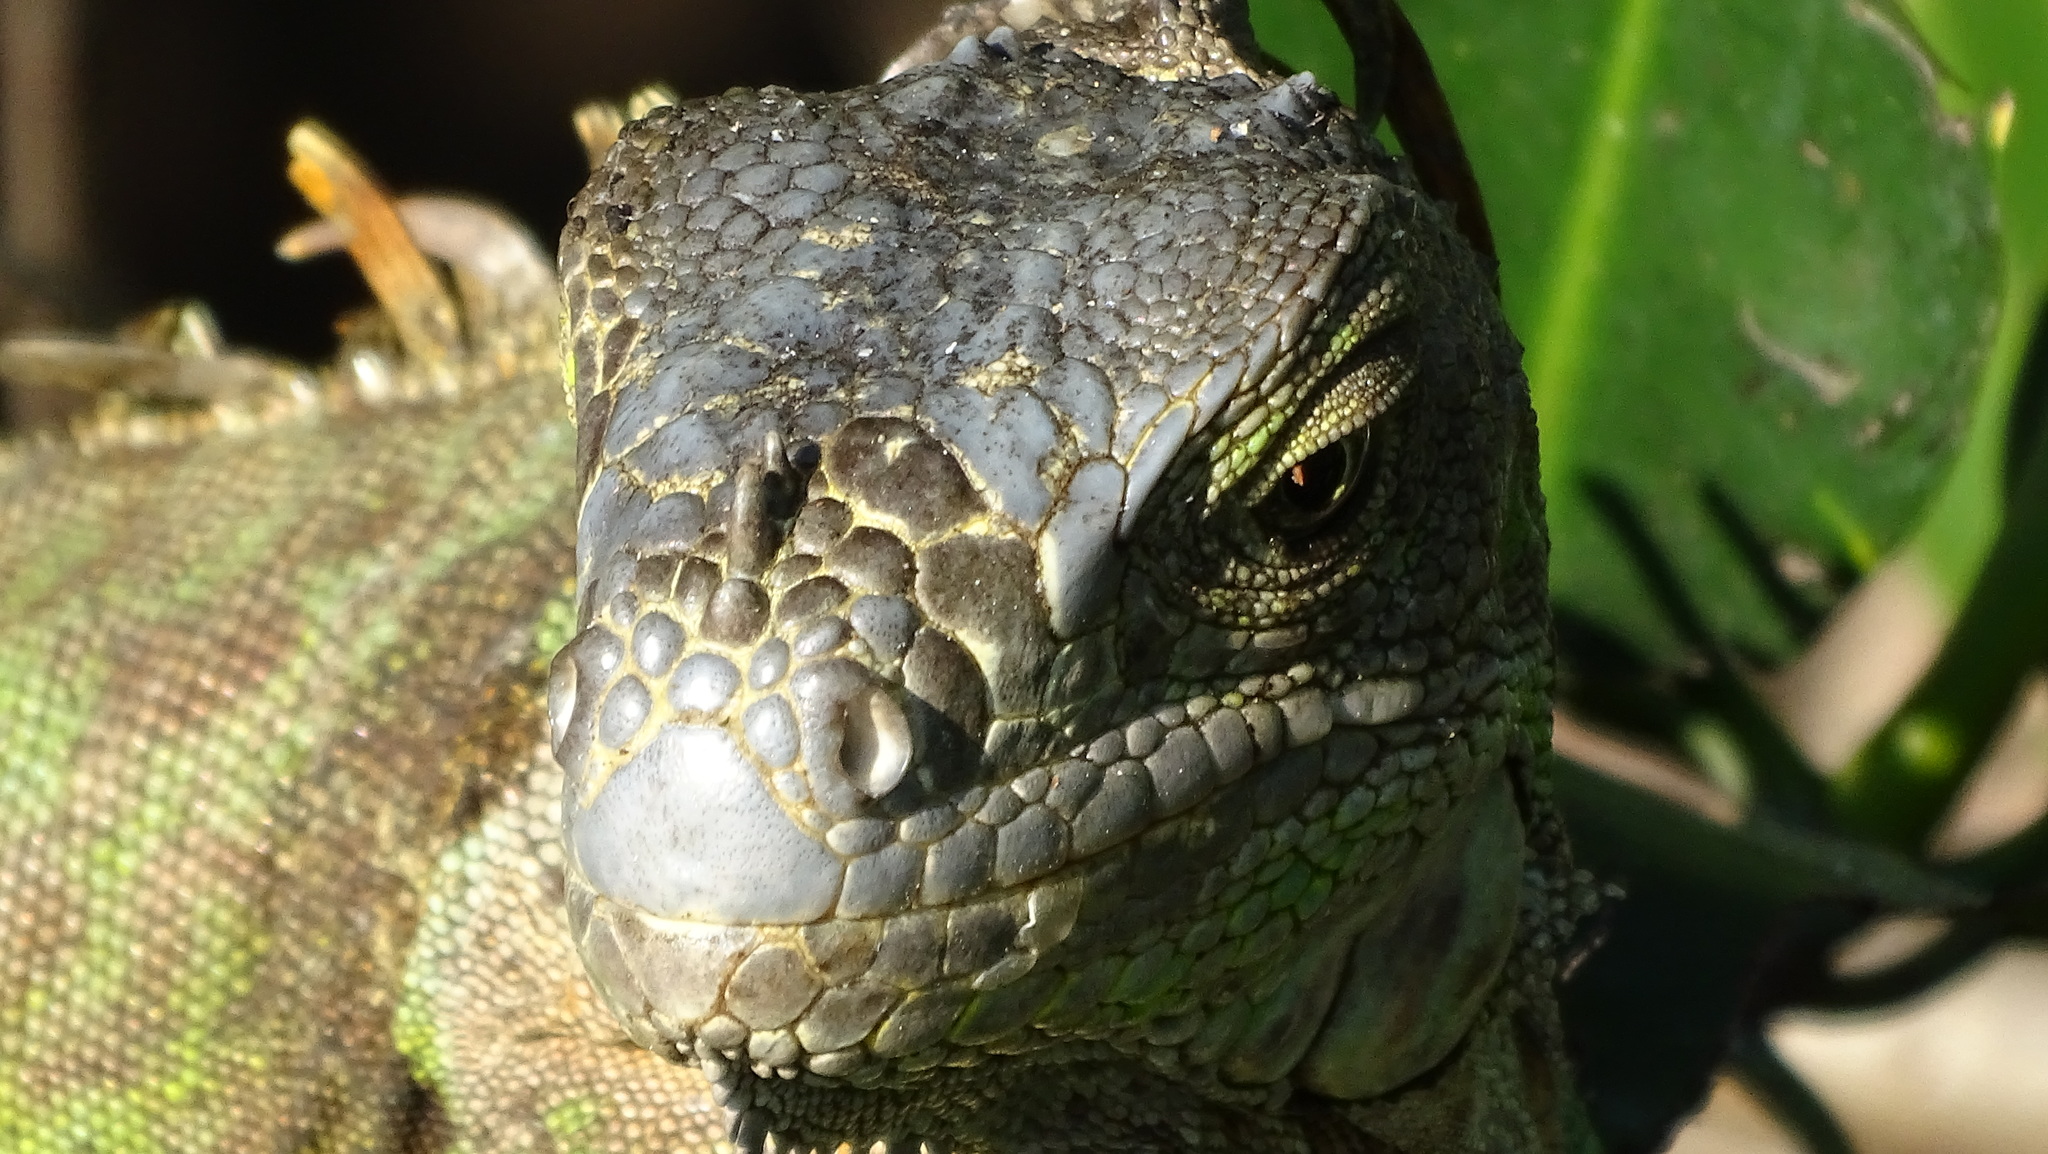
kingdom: Animalia
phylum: Chordata
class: Squamata
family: Iguanidae
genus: Iguana
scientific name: Iguana iguana
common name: Green iguana
